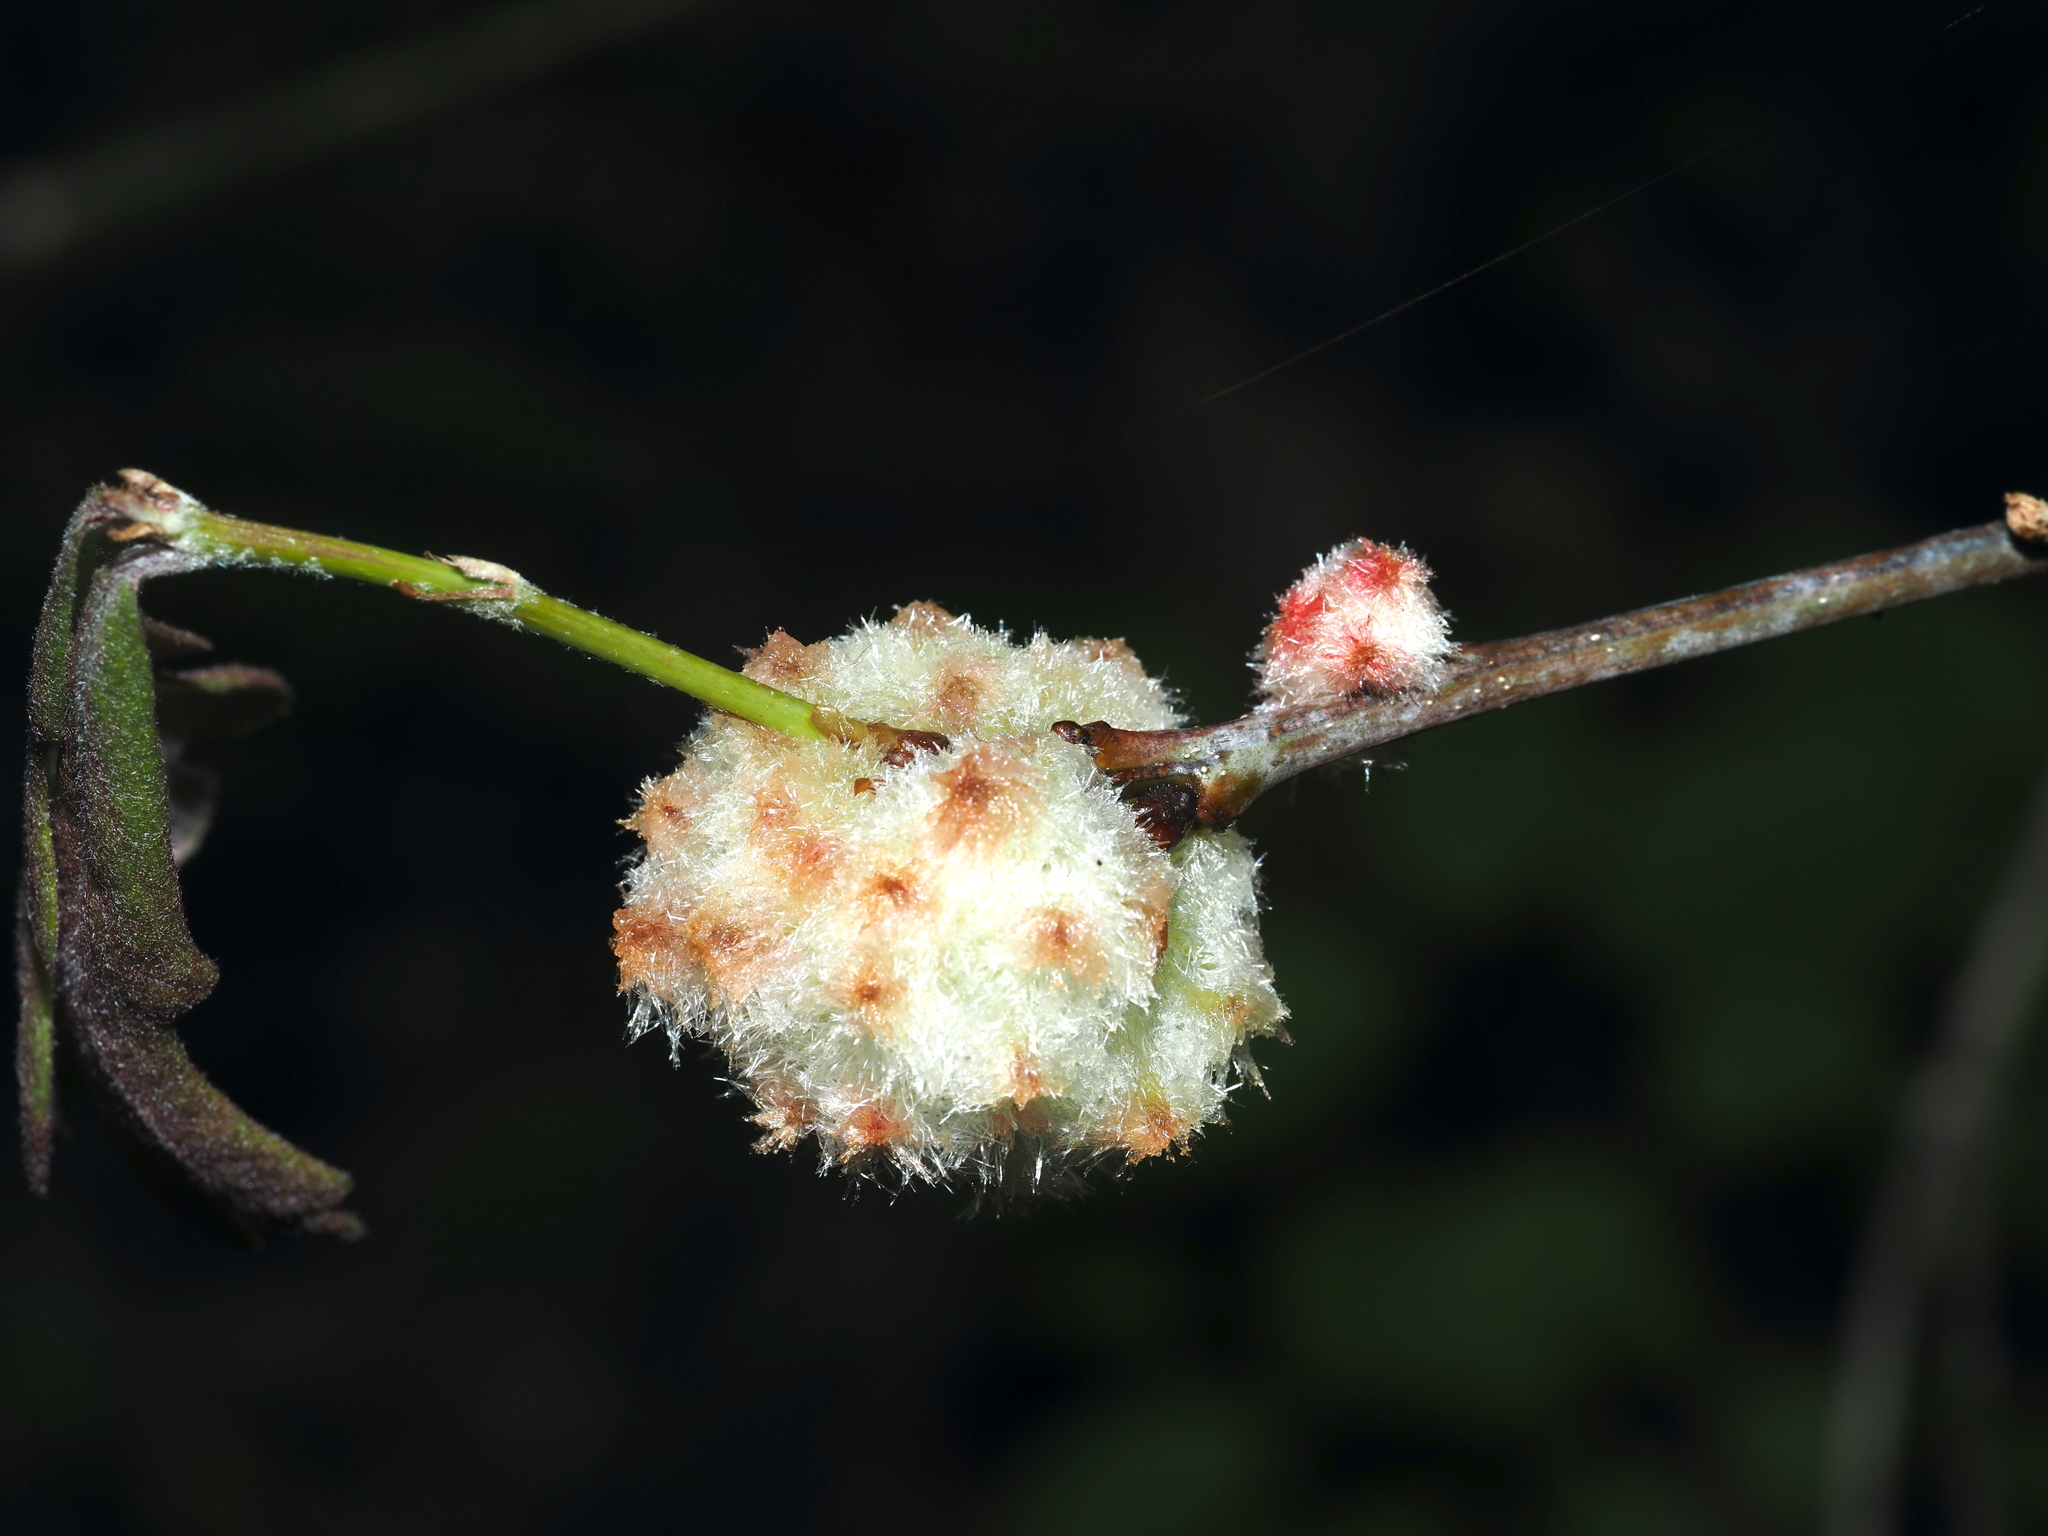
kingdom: Animalia
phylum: Arthropoda
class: Insecta
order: Hymenoptera
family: Cynipidae
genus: Callirhytis
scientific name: Callirhytis
